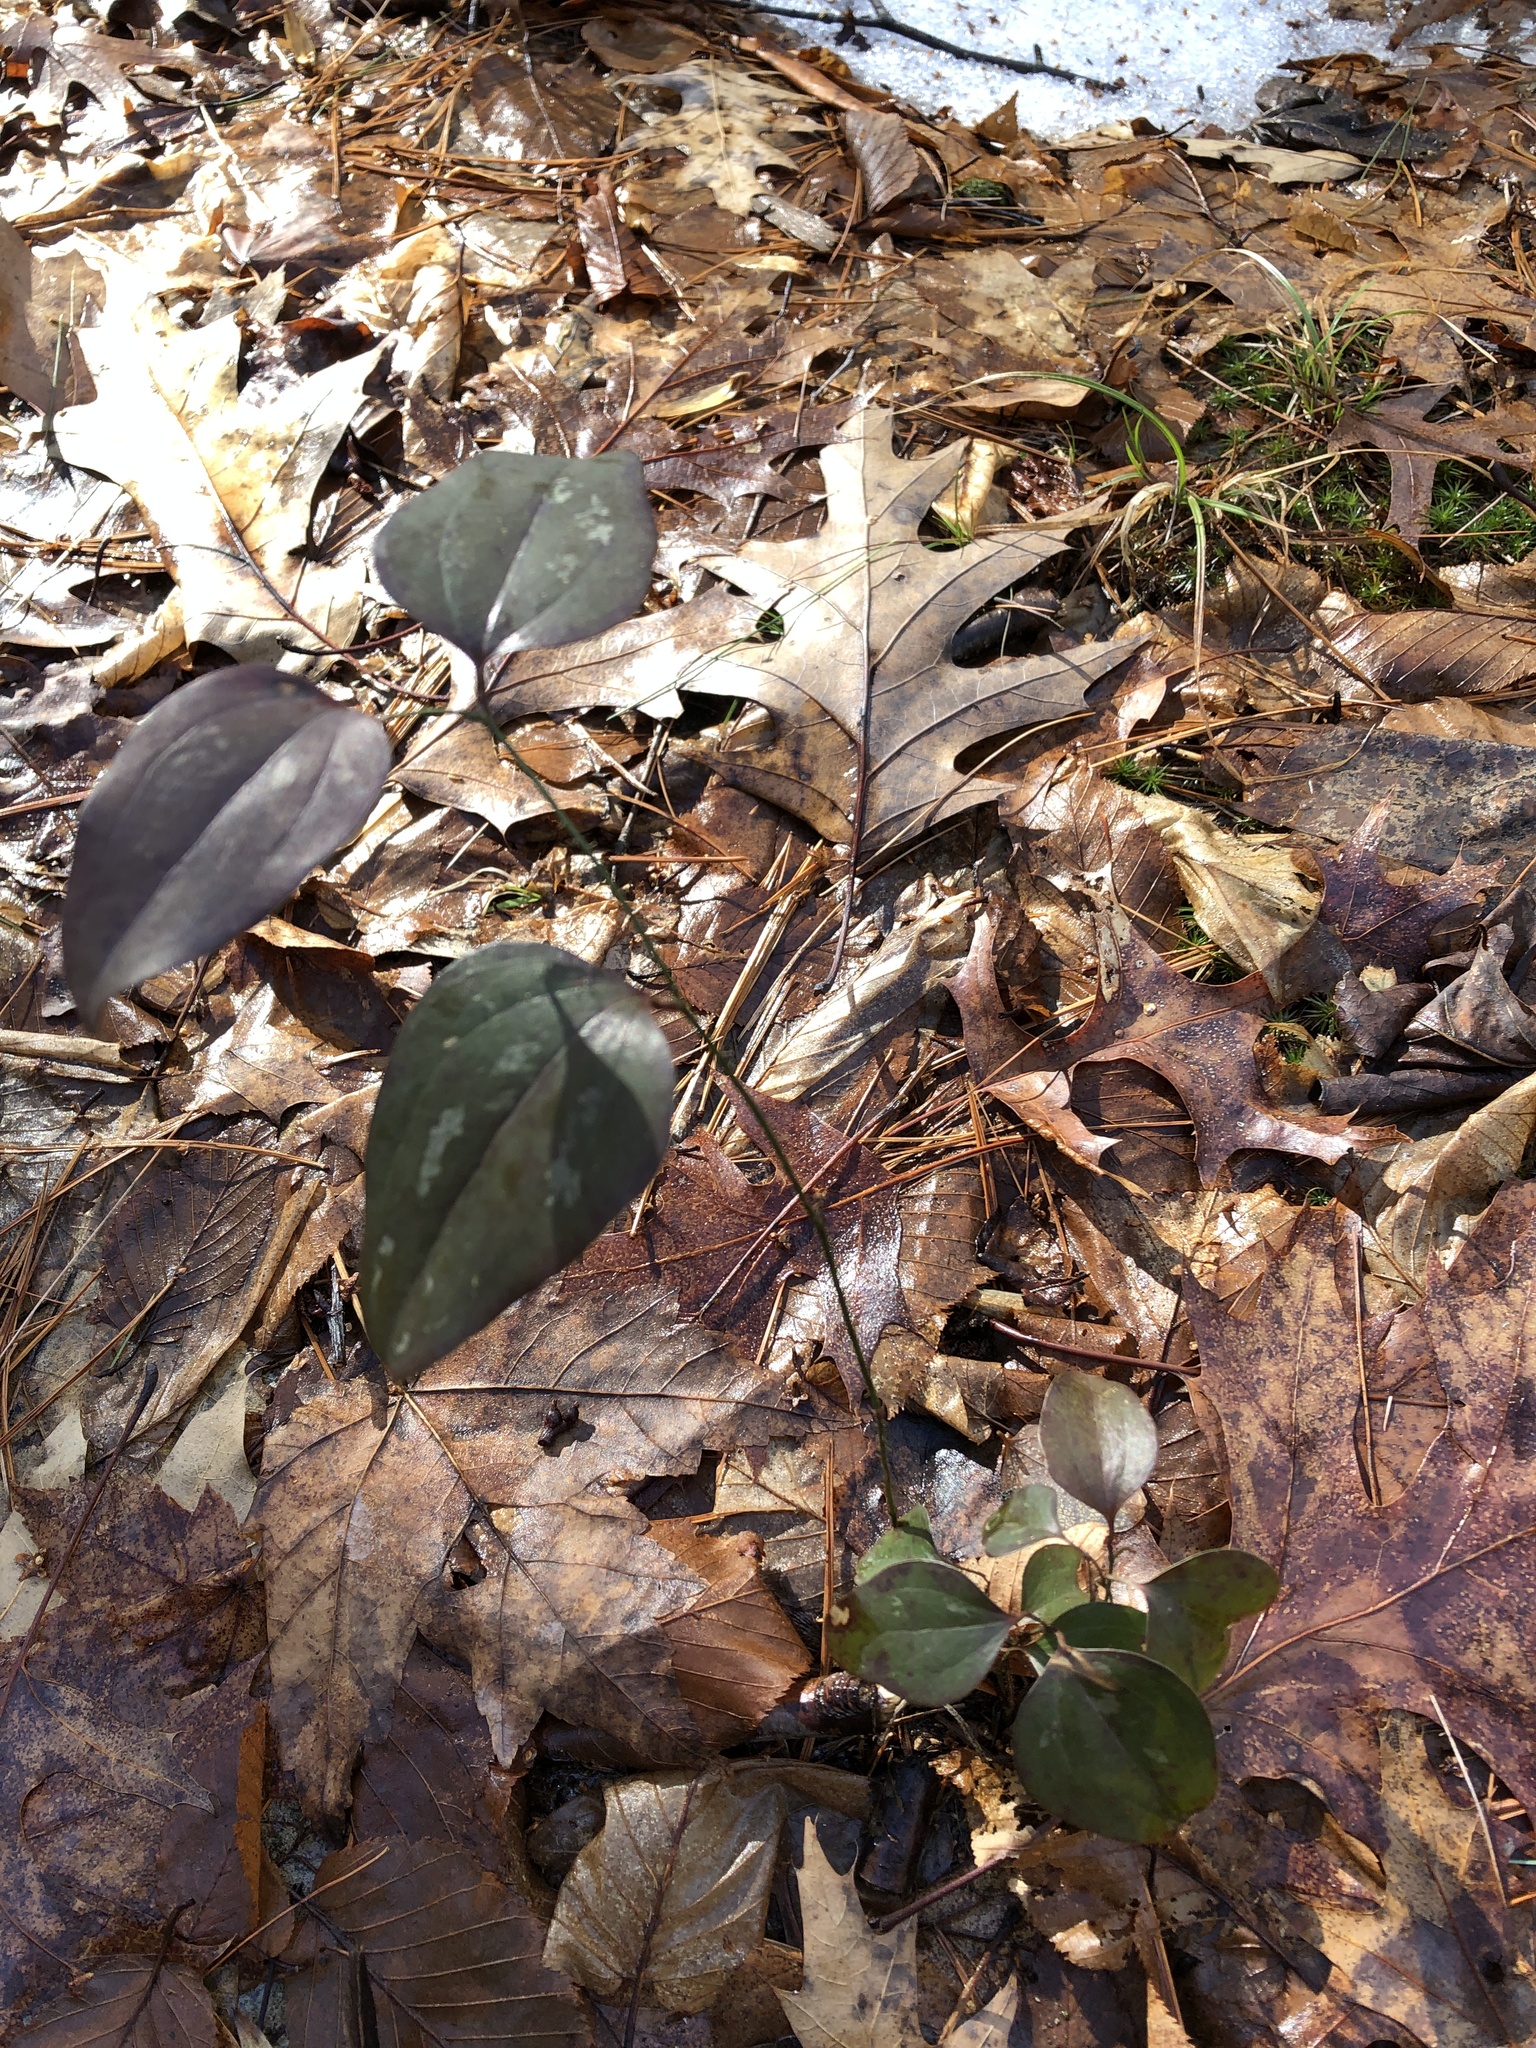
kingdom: Plantae
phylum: Tracheophyta
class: Liliopsida
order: Liliales
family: Smilacaceae
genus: Smilax
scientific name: Smilax glauca
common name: Cat greenbrier
